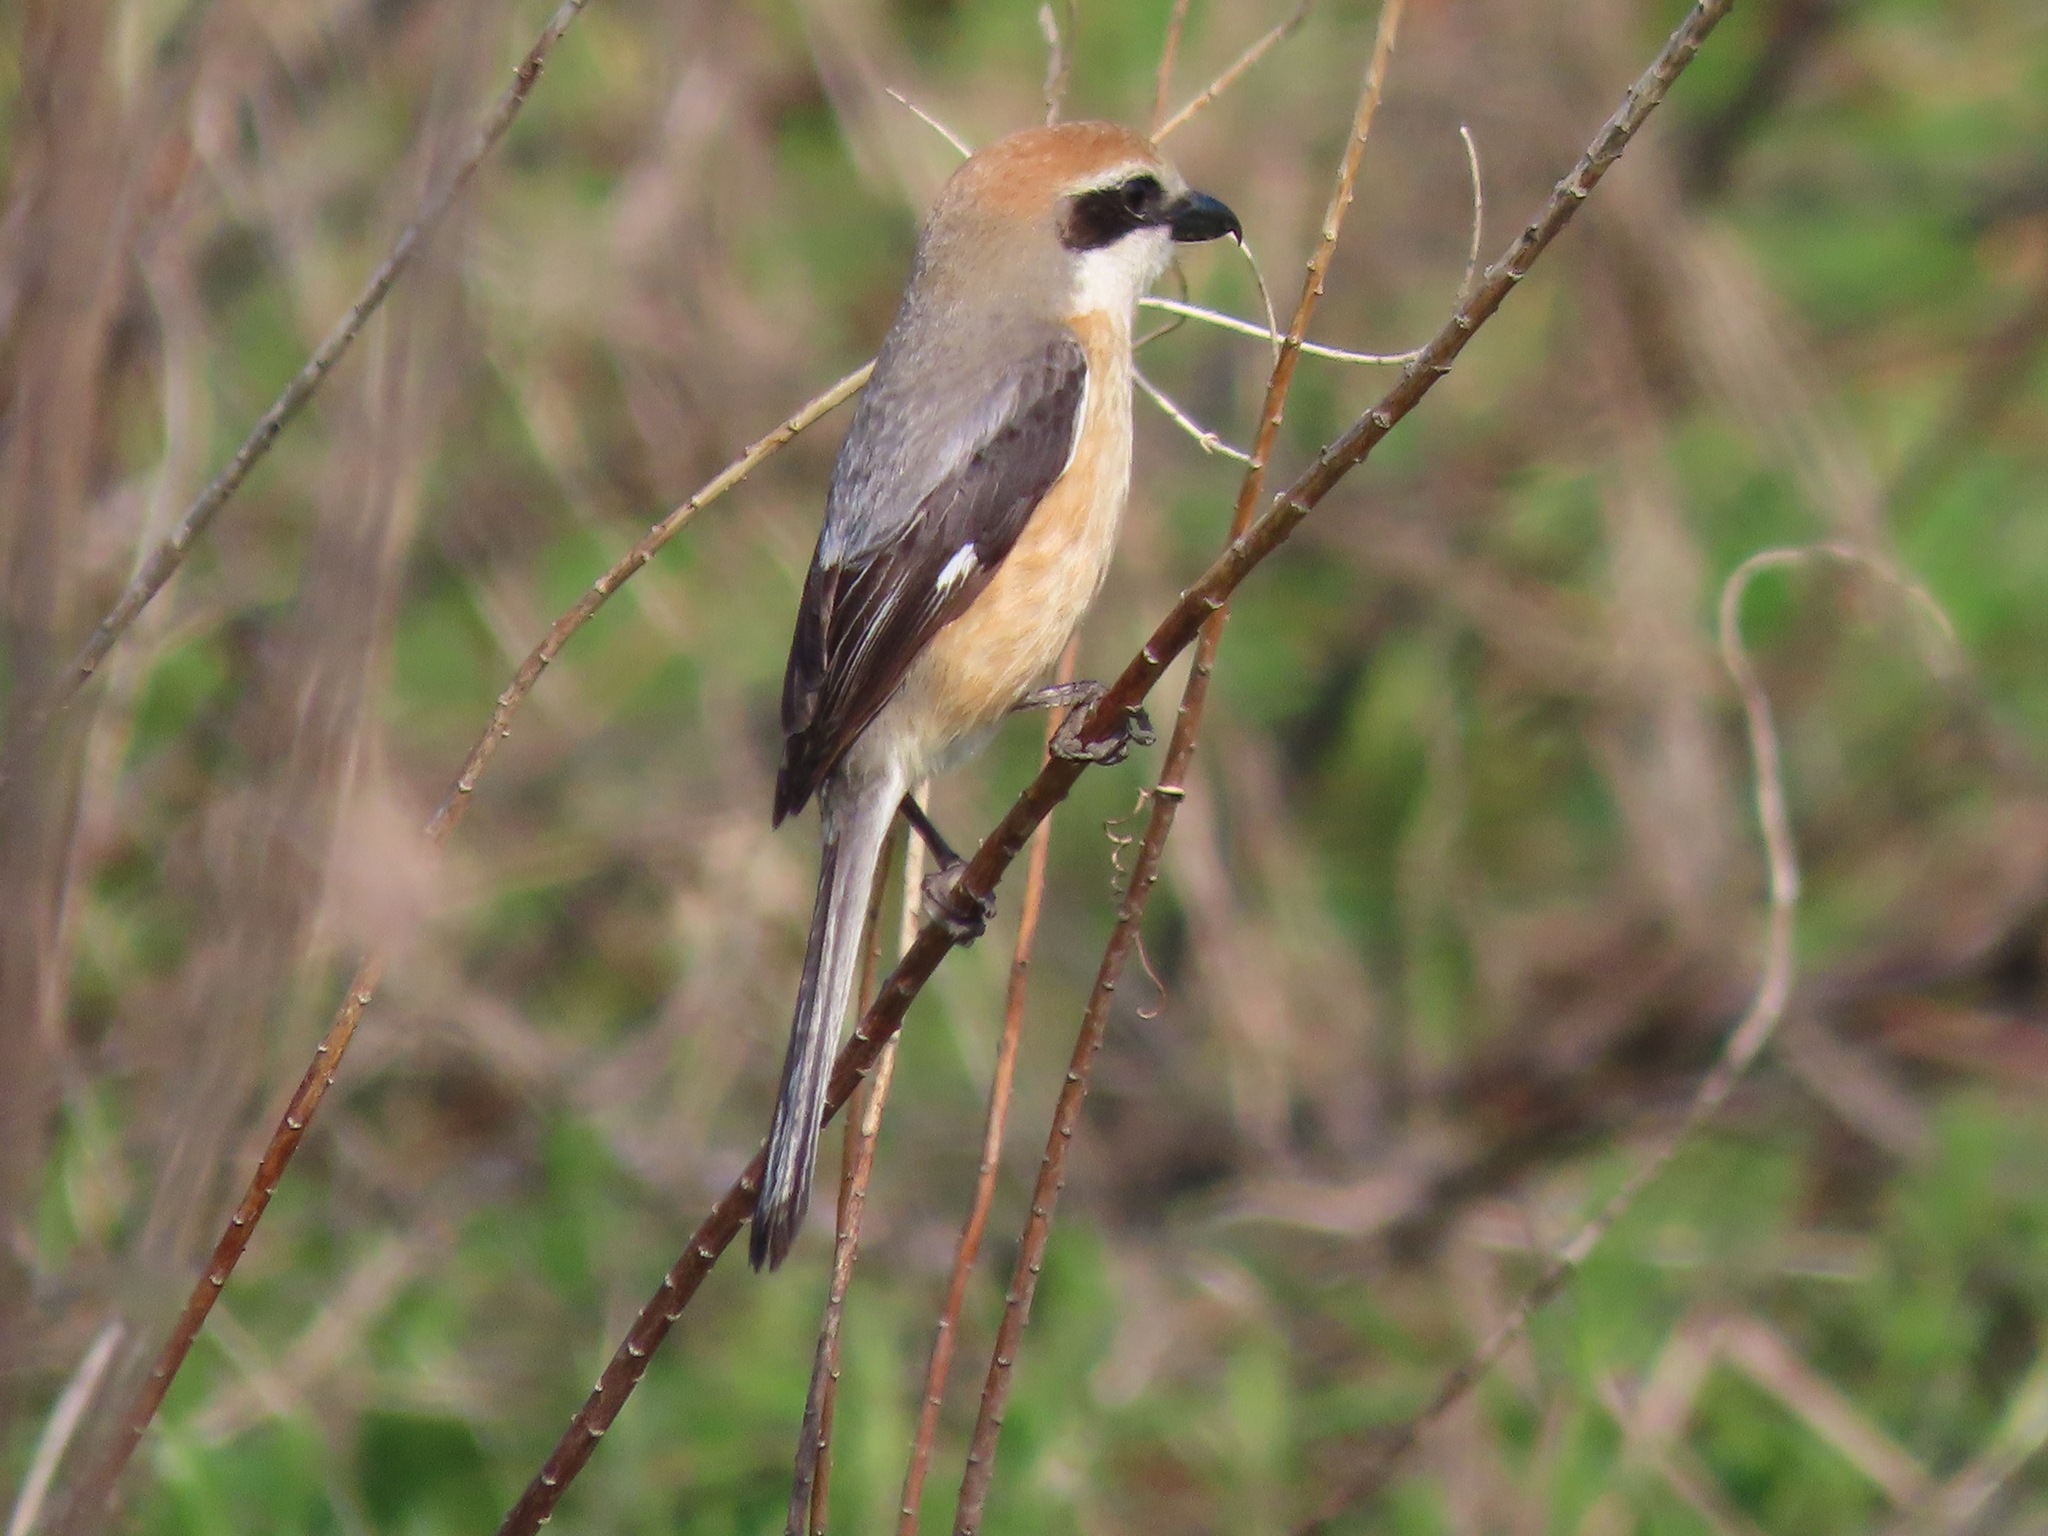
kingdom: Animalia
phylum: Chordata
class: Aves
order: Passeriformes
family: Laniidae
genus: Lanius
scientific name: Lanius bucephalus
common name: Bull-headed shrike
